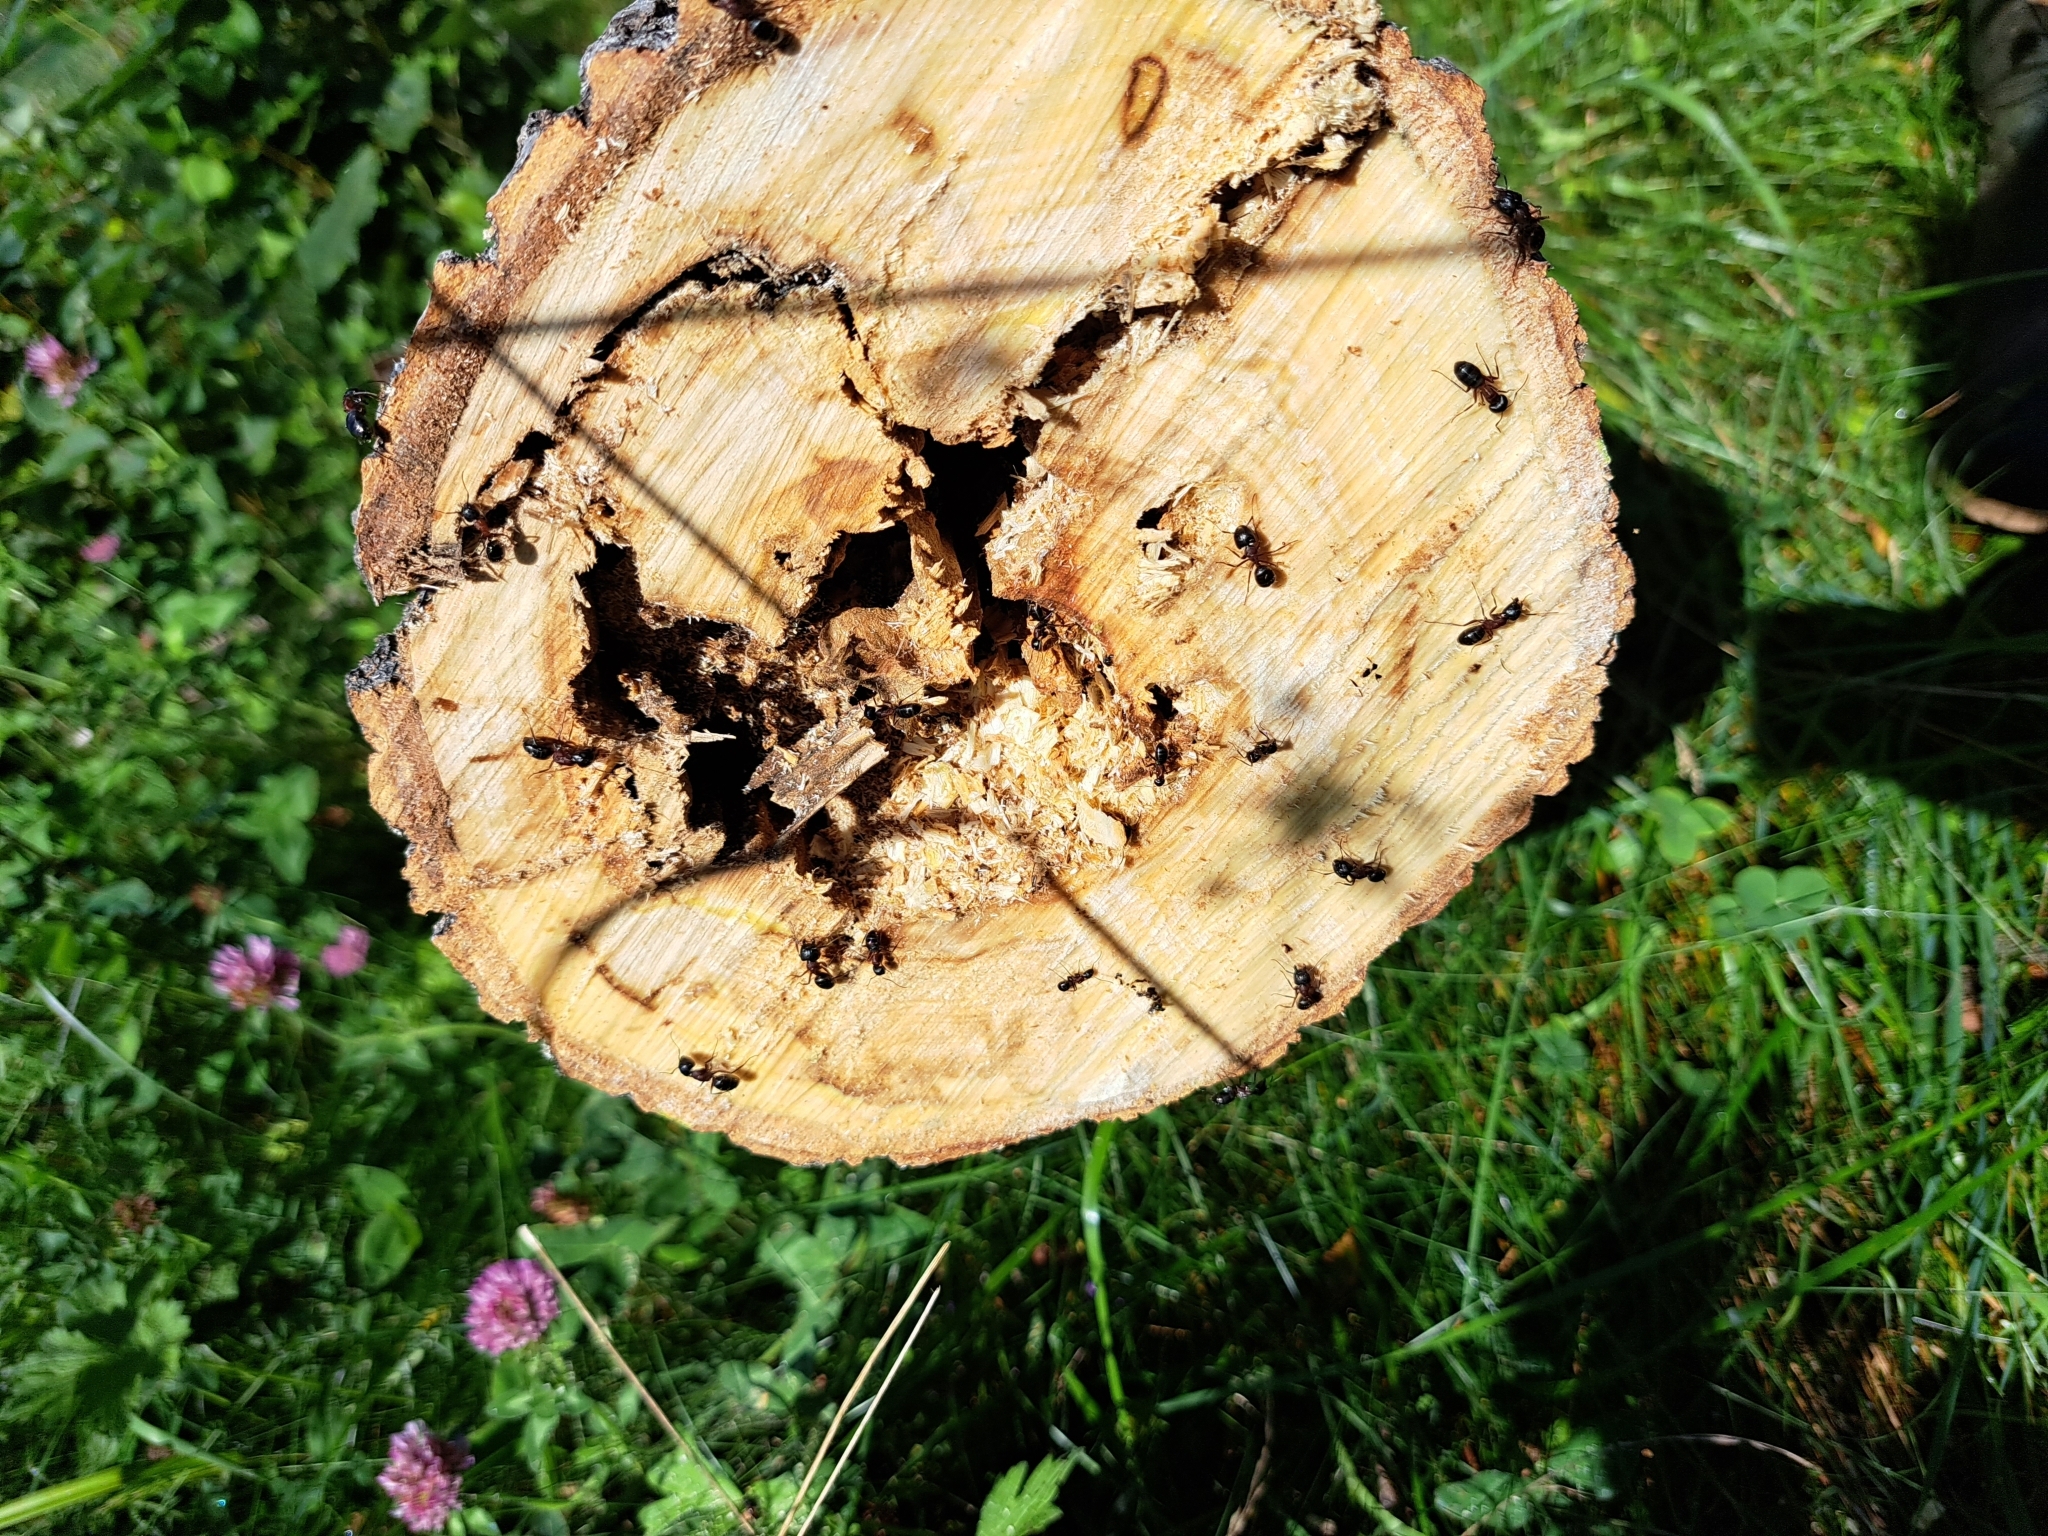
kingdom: Animalia
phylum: Arthropoda
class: Insecta
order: Hymenoptera
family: Formicidae
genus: Camponotus
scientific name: Camponotus novaeboracensis
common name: New york carpenter ant
